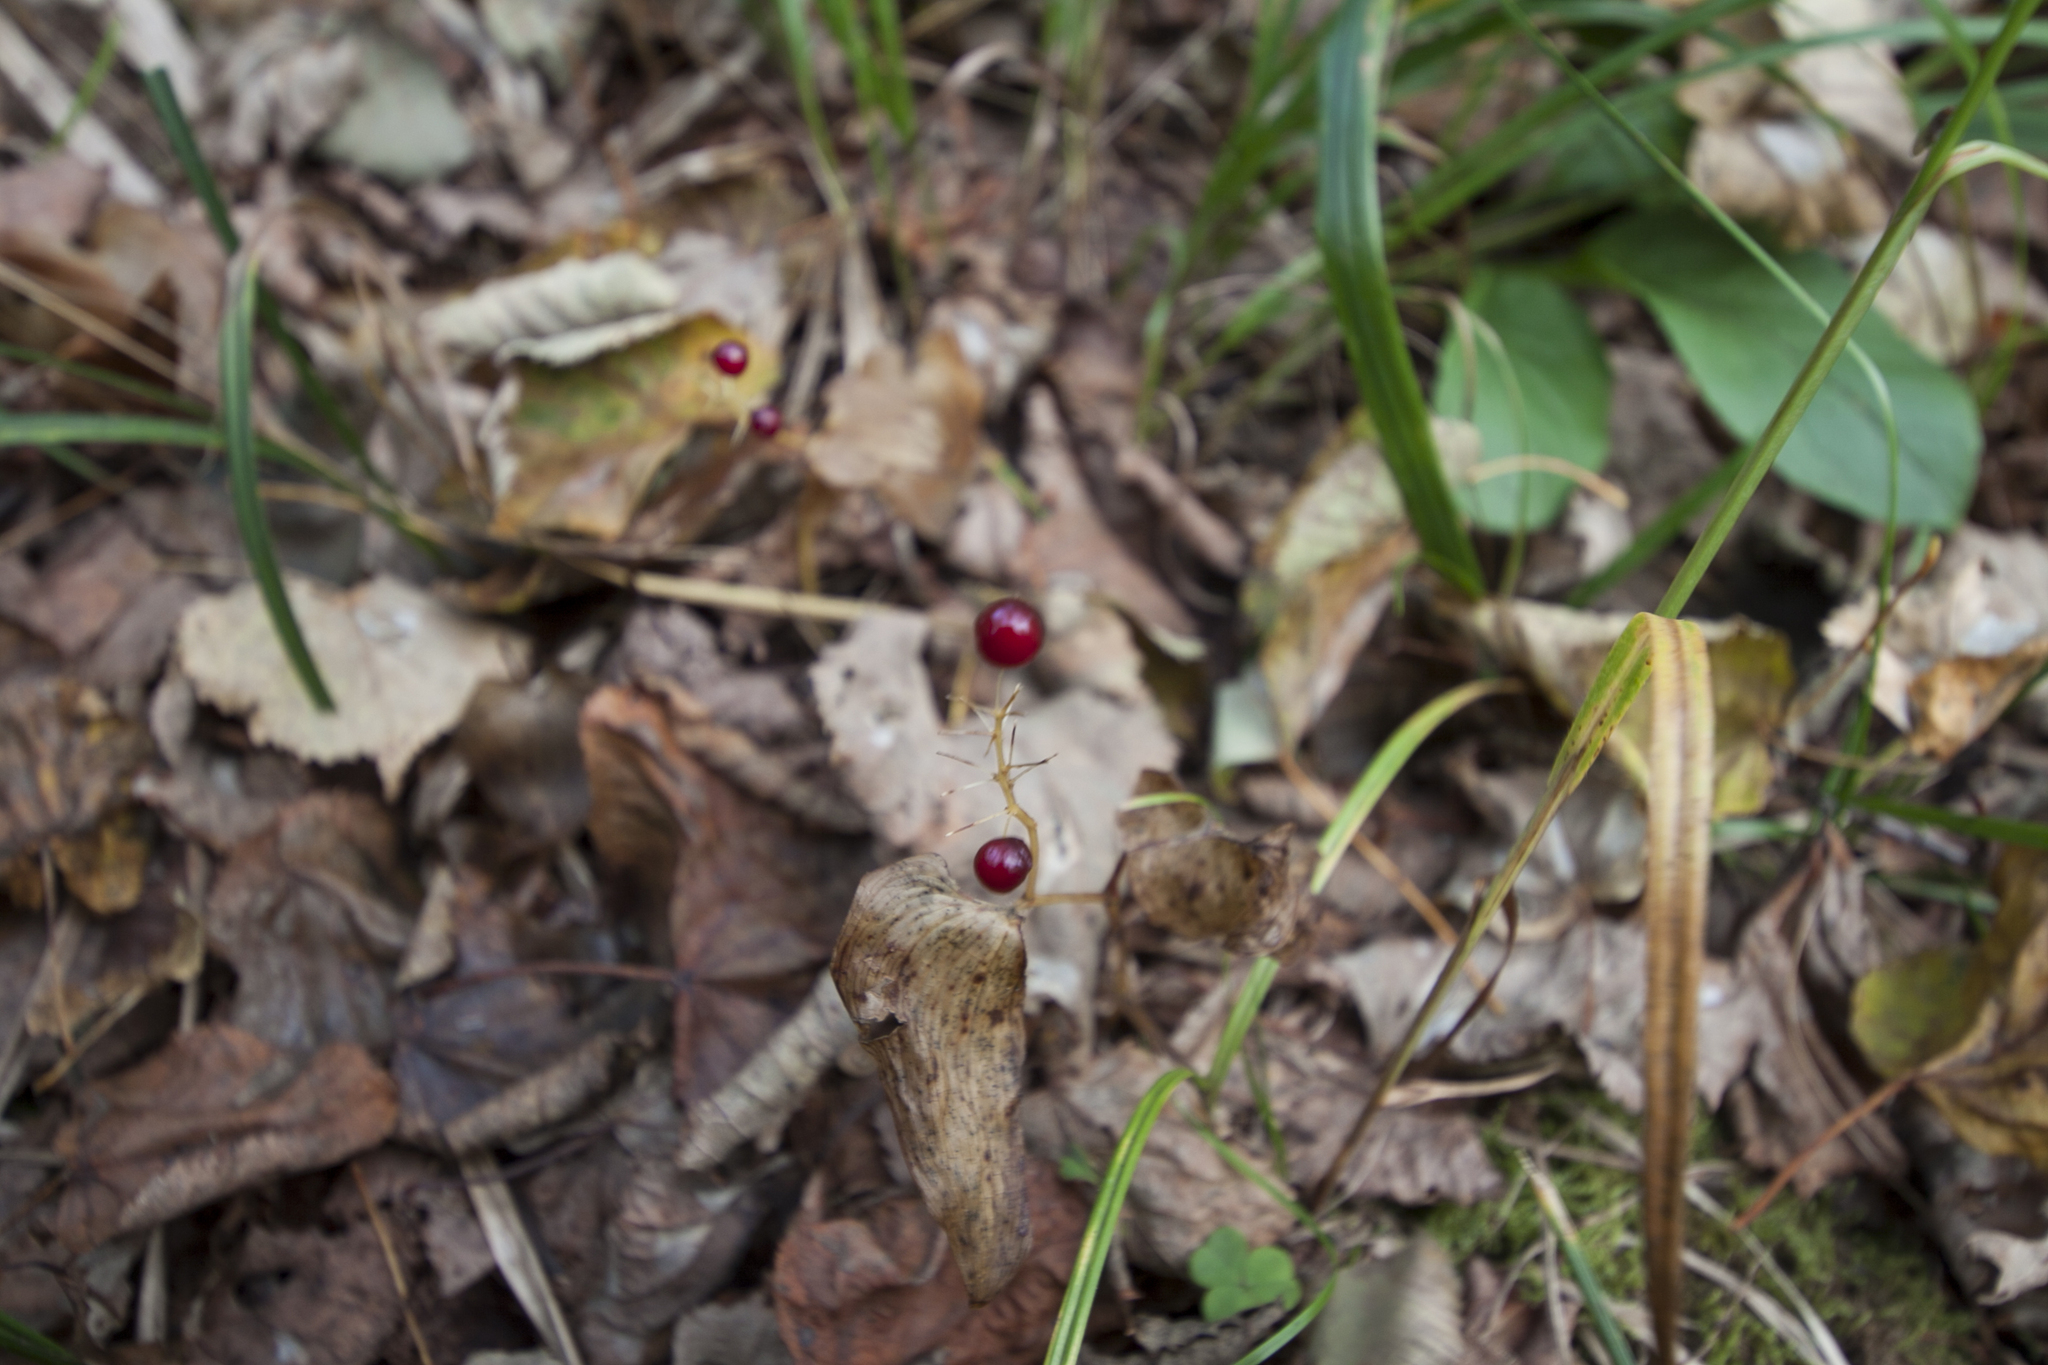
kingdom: Plantae
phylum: Tracheophyta
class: Liliopsida
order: Asparagales
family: Asparagaceae
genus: Maianthemum
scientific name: Maianthemum bifolium
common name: May lily
